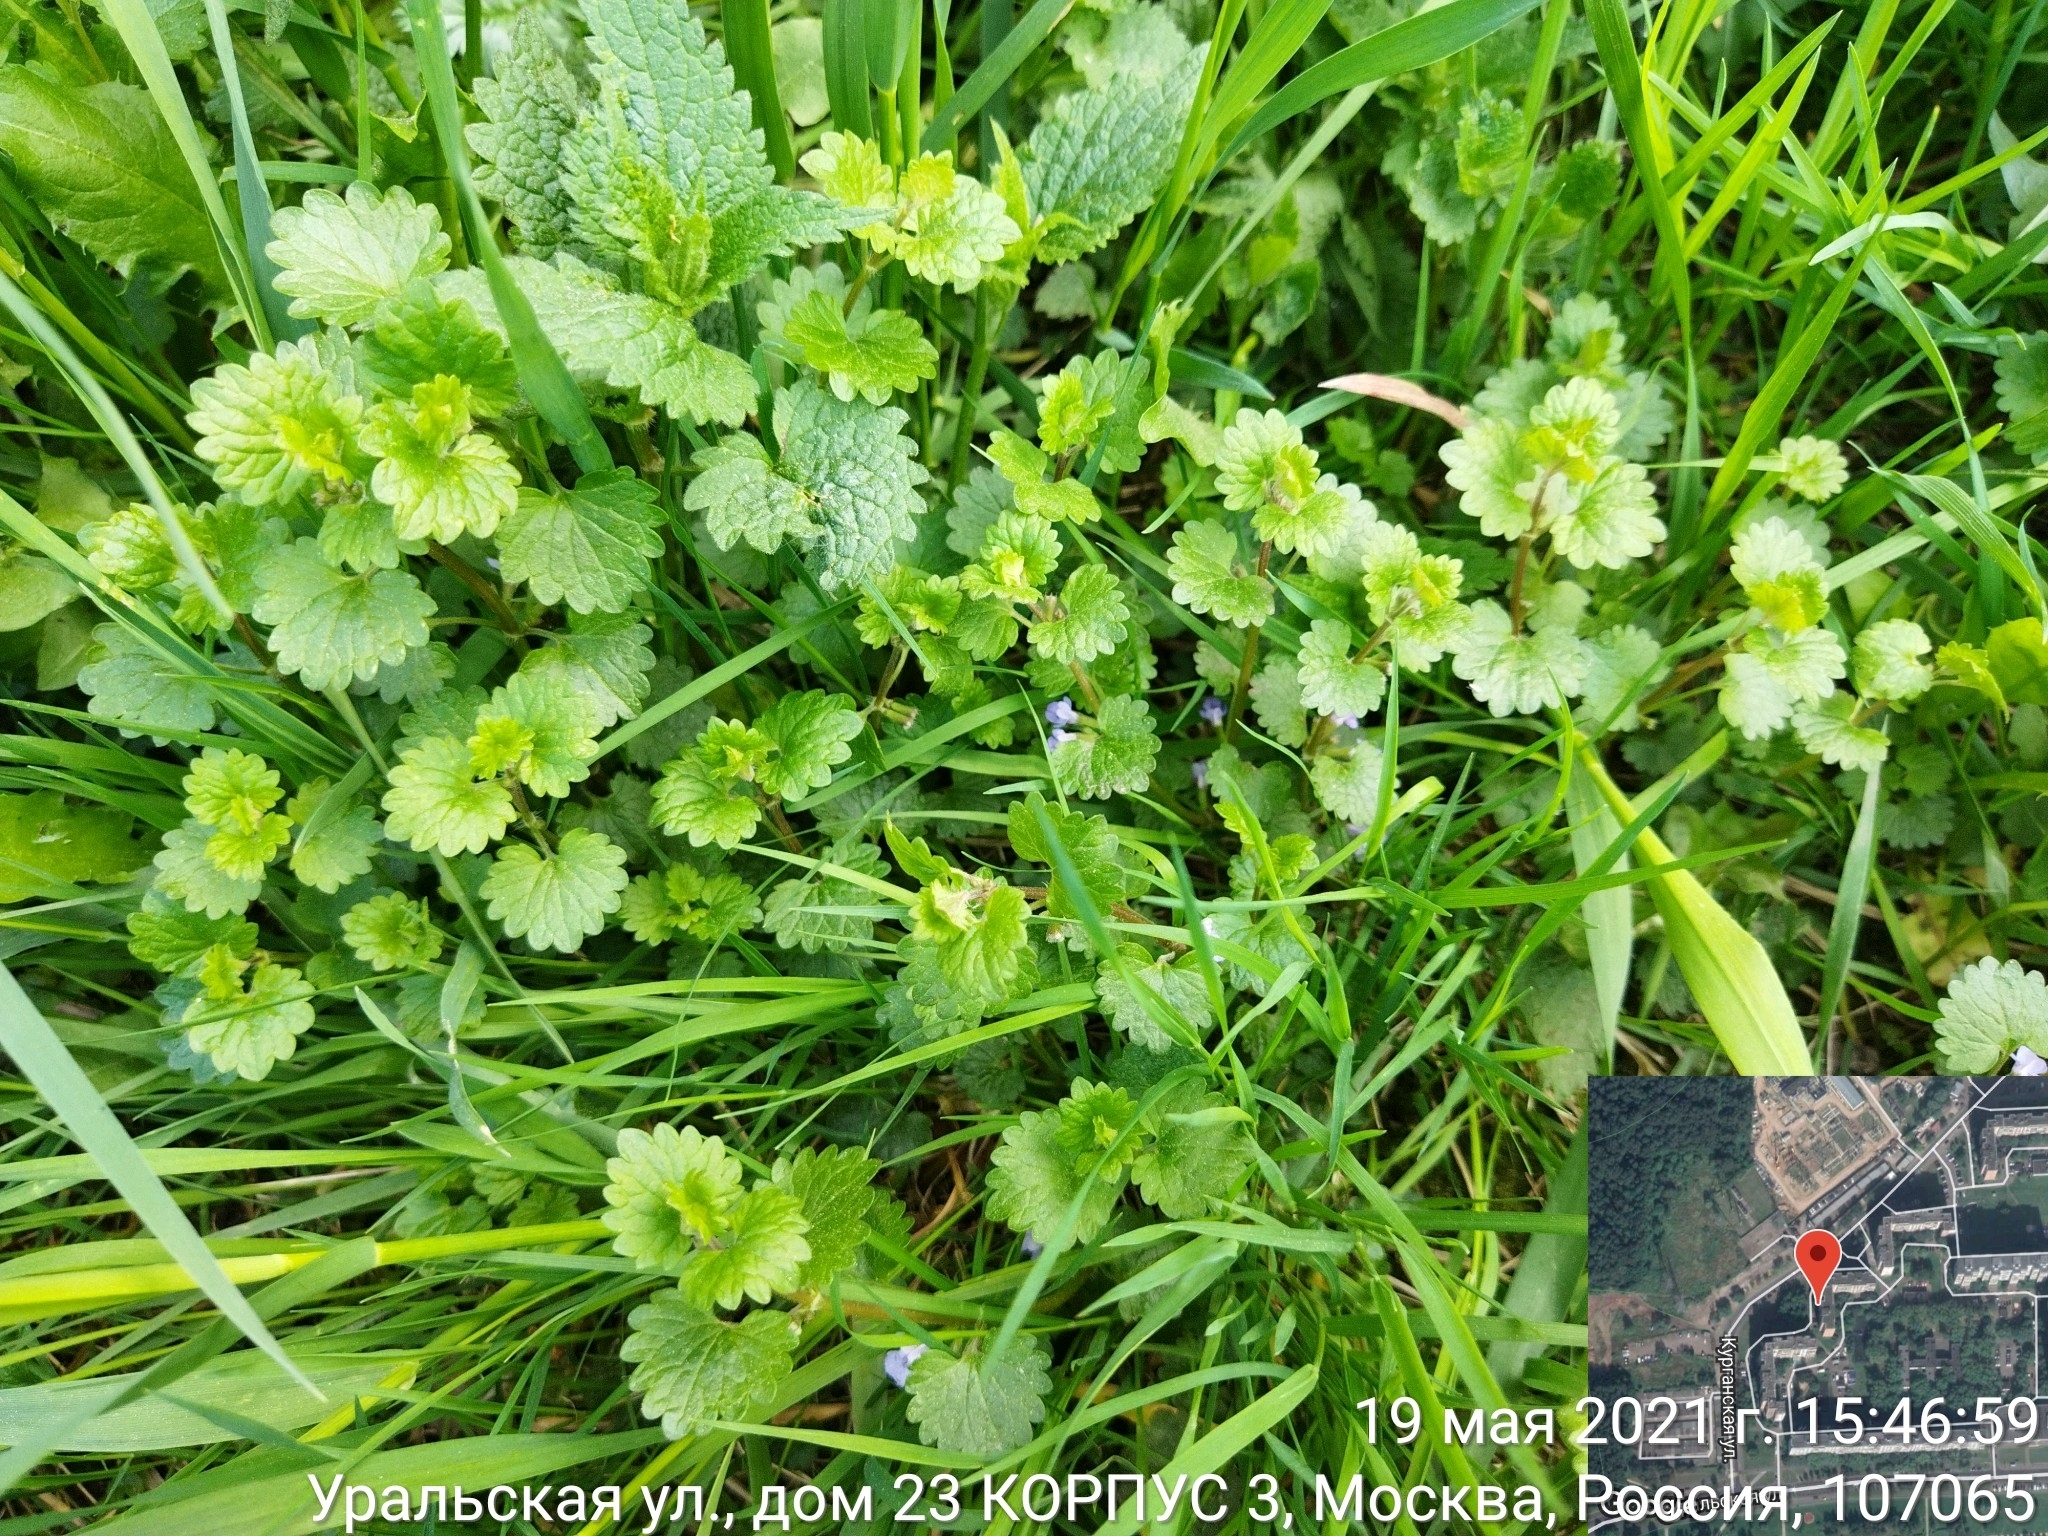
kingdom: Plantae
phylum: Tracheophyta
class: Magnoliopsida
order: Lamiales
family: Lamiaceae
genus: Glechoma
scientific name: Glechoma hederacea
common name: Ground ivy
